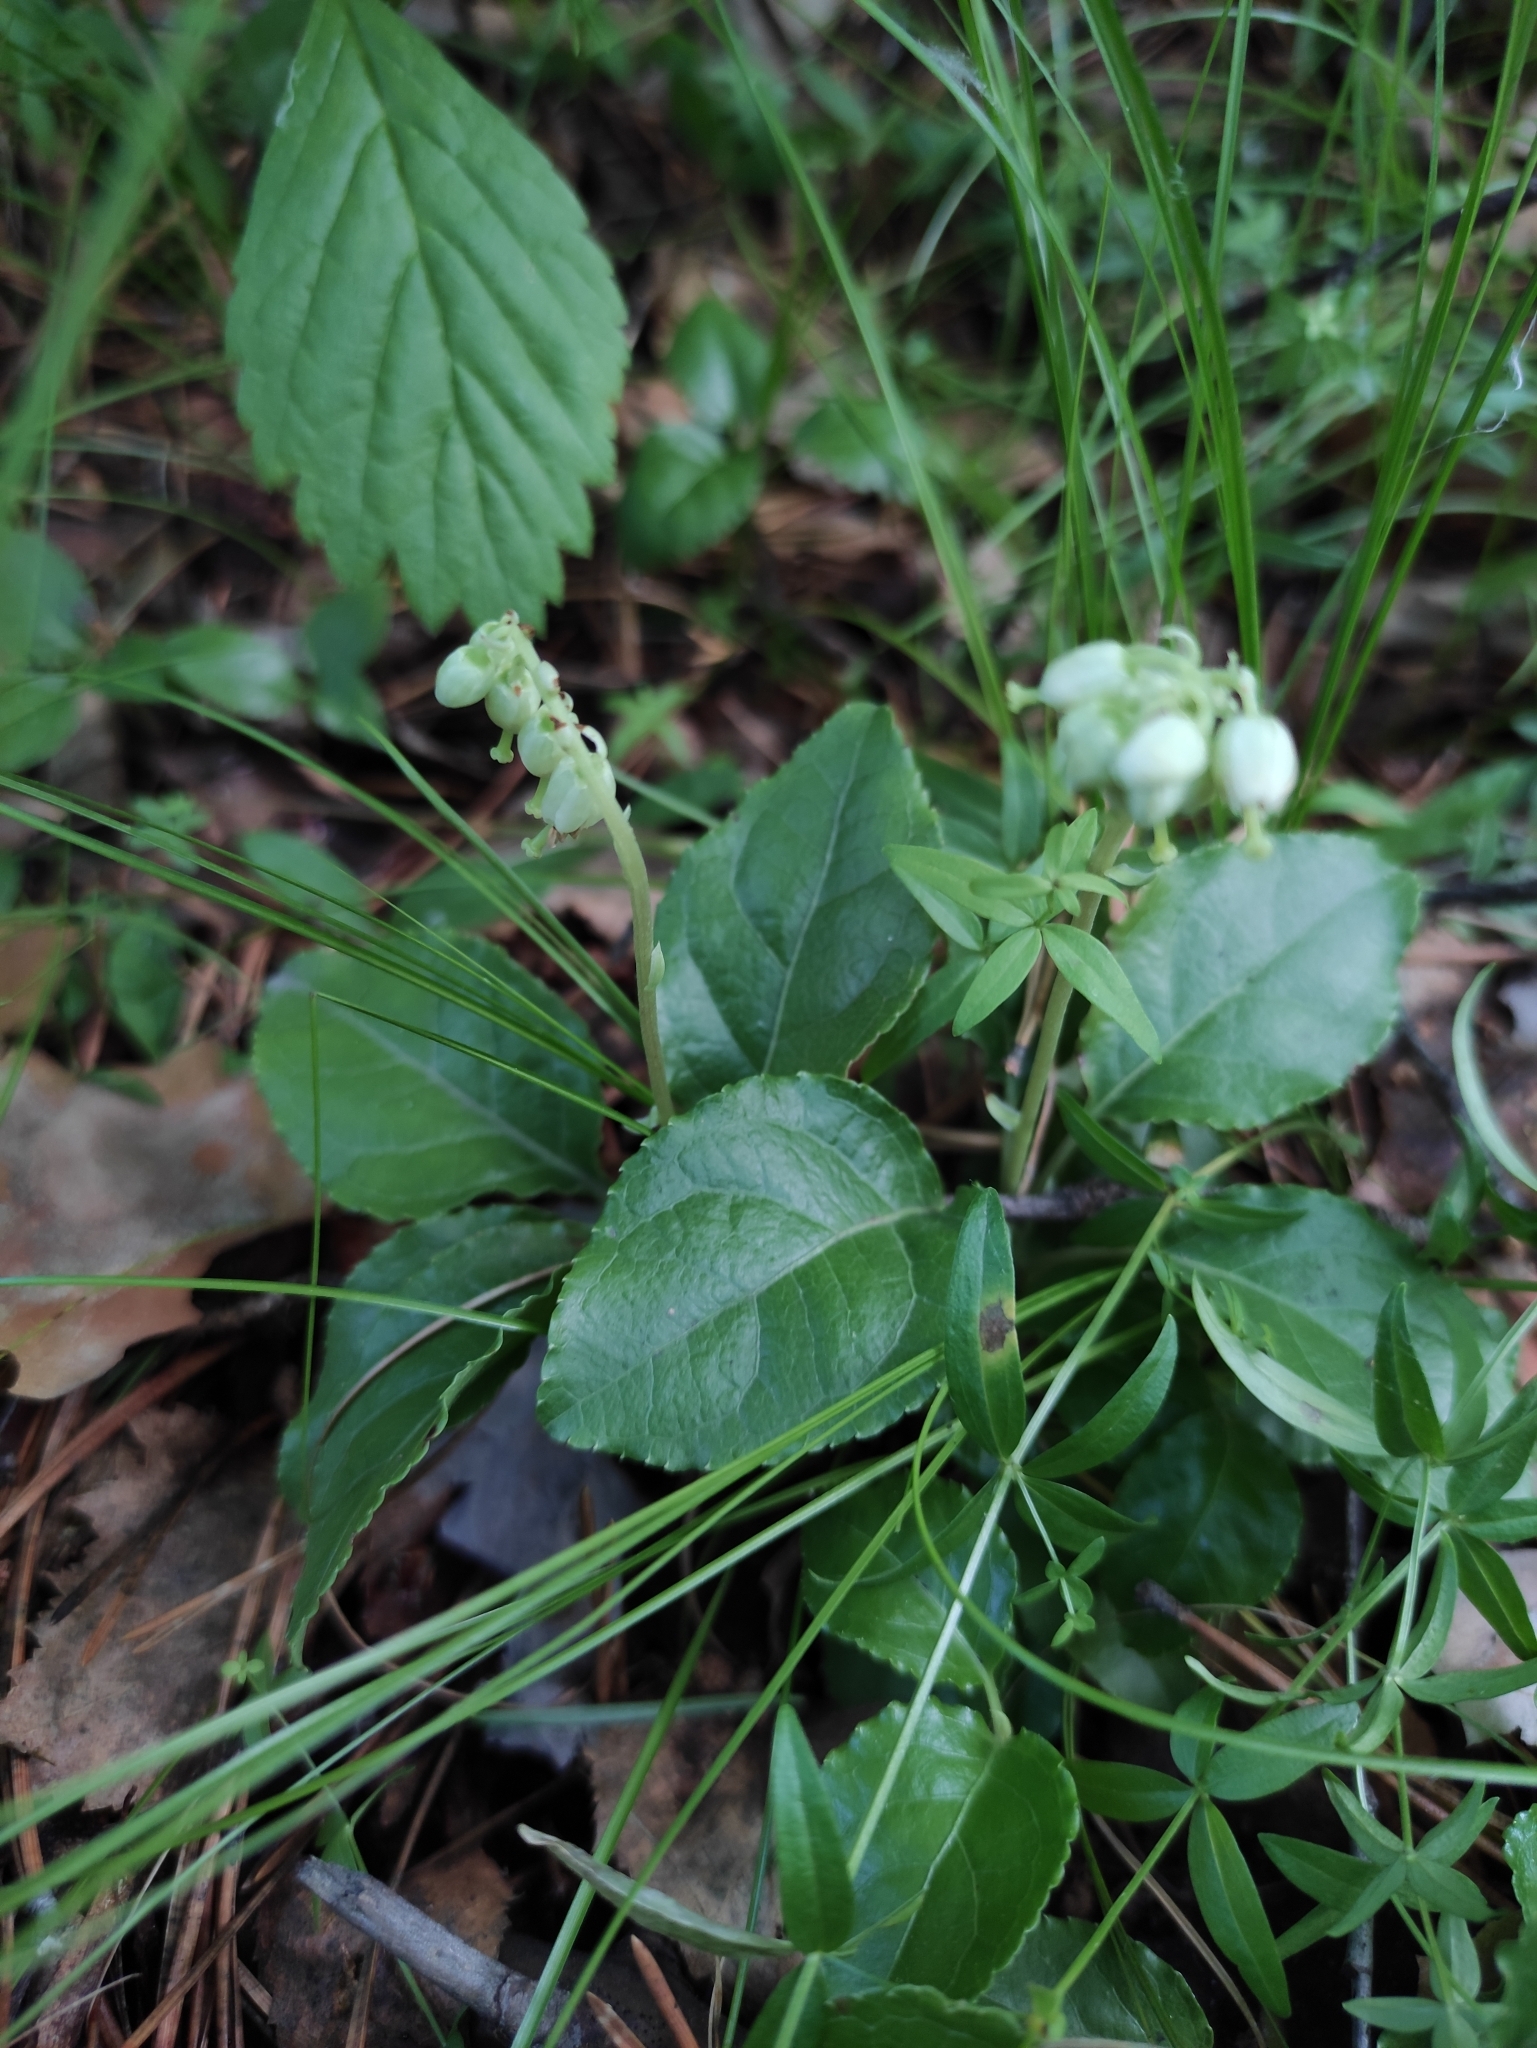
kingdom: Plantae
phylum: Tracheophyta
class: Magnoliopsida
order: Ericales
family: Ericaceae
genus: Orthilia
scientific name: Orthilia secunda
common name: One-sided orthilia
